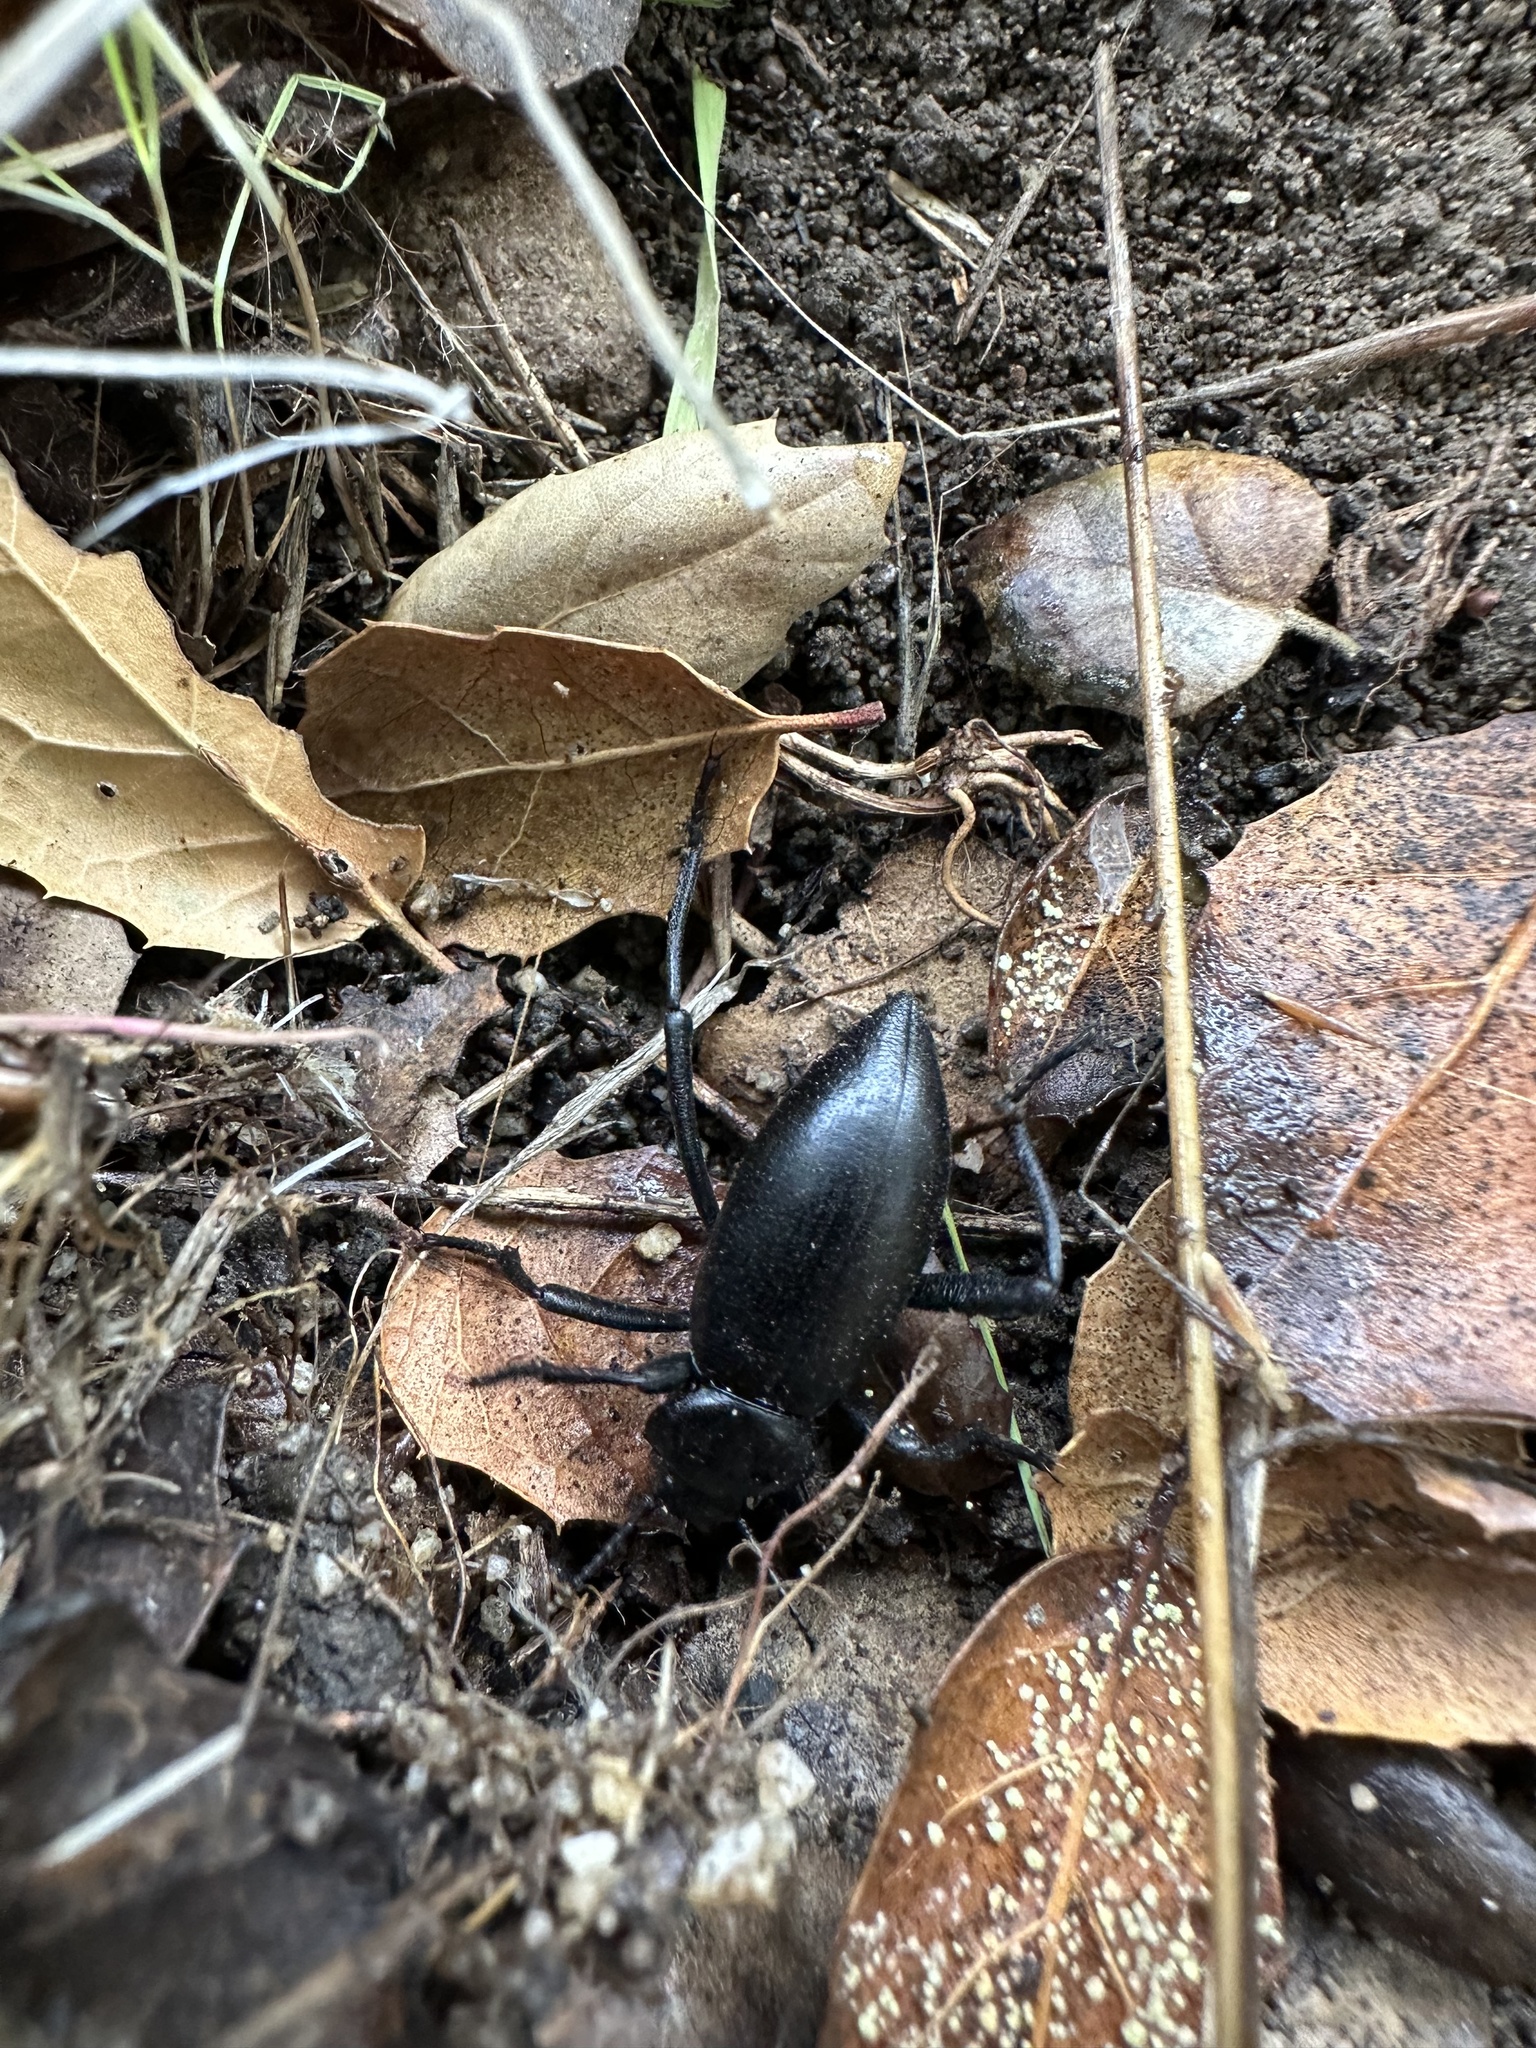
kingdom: Animalia
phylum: Arthropoda
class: Insecta
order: Coleoptera
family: Tenebrionidae
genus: Eleodes
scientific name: Eleodes dentipes
